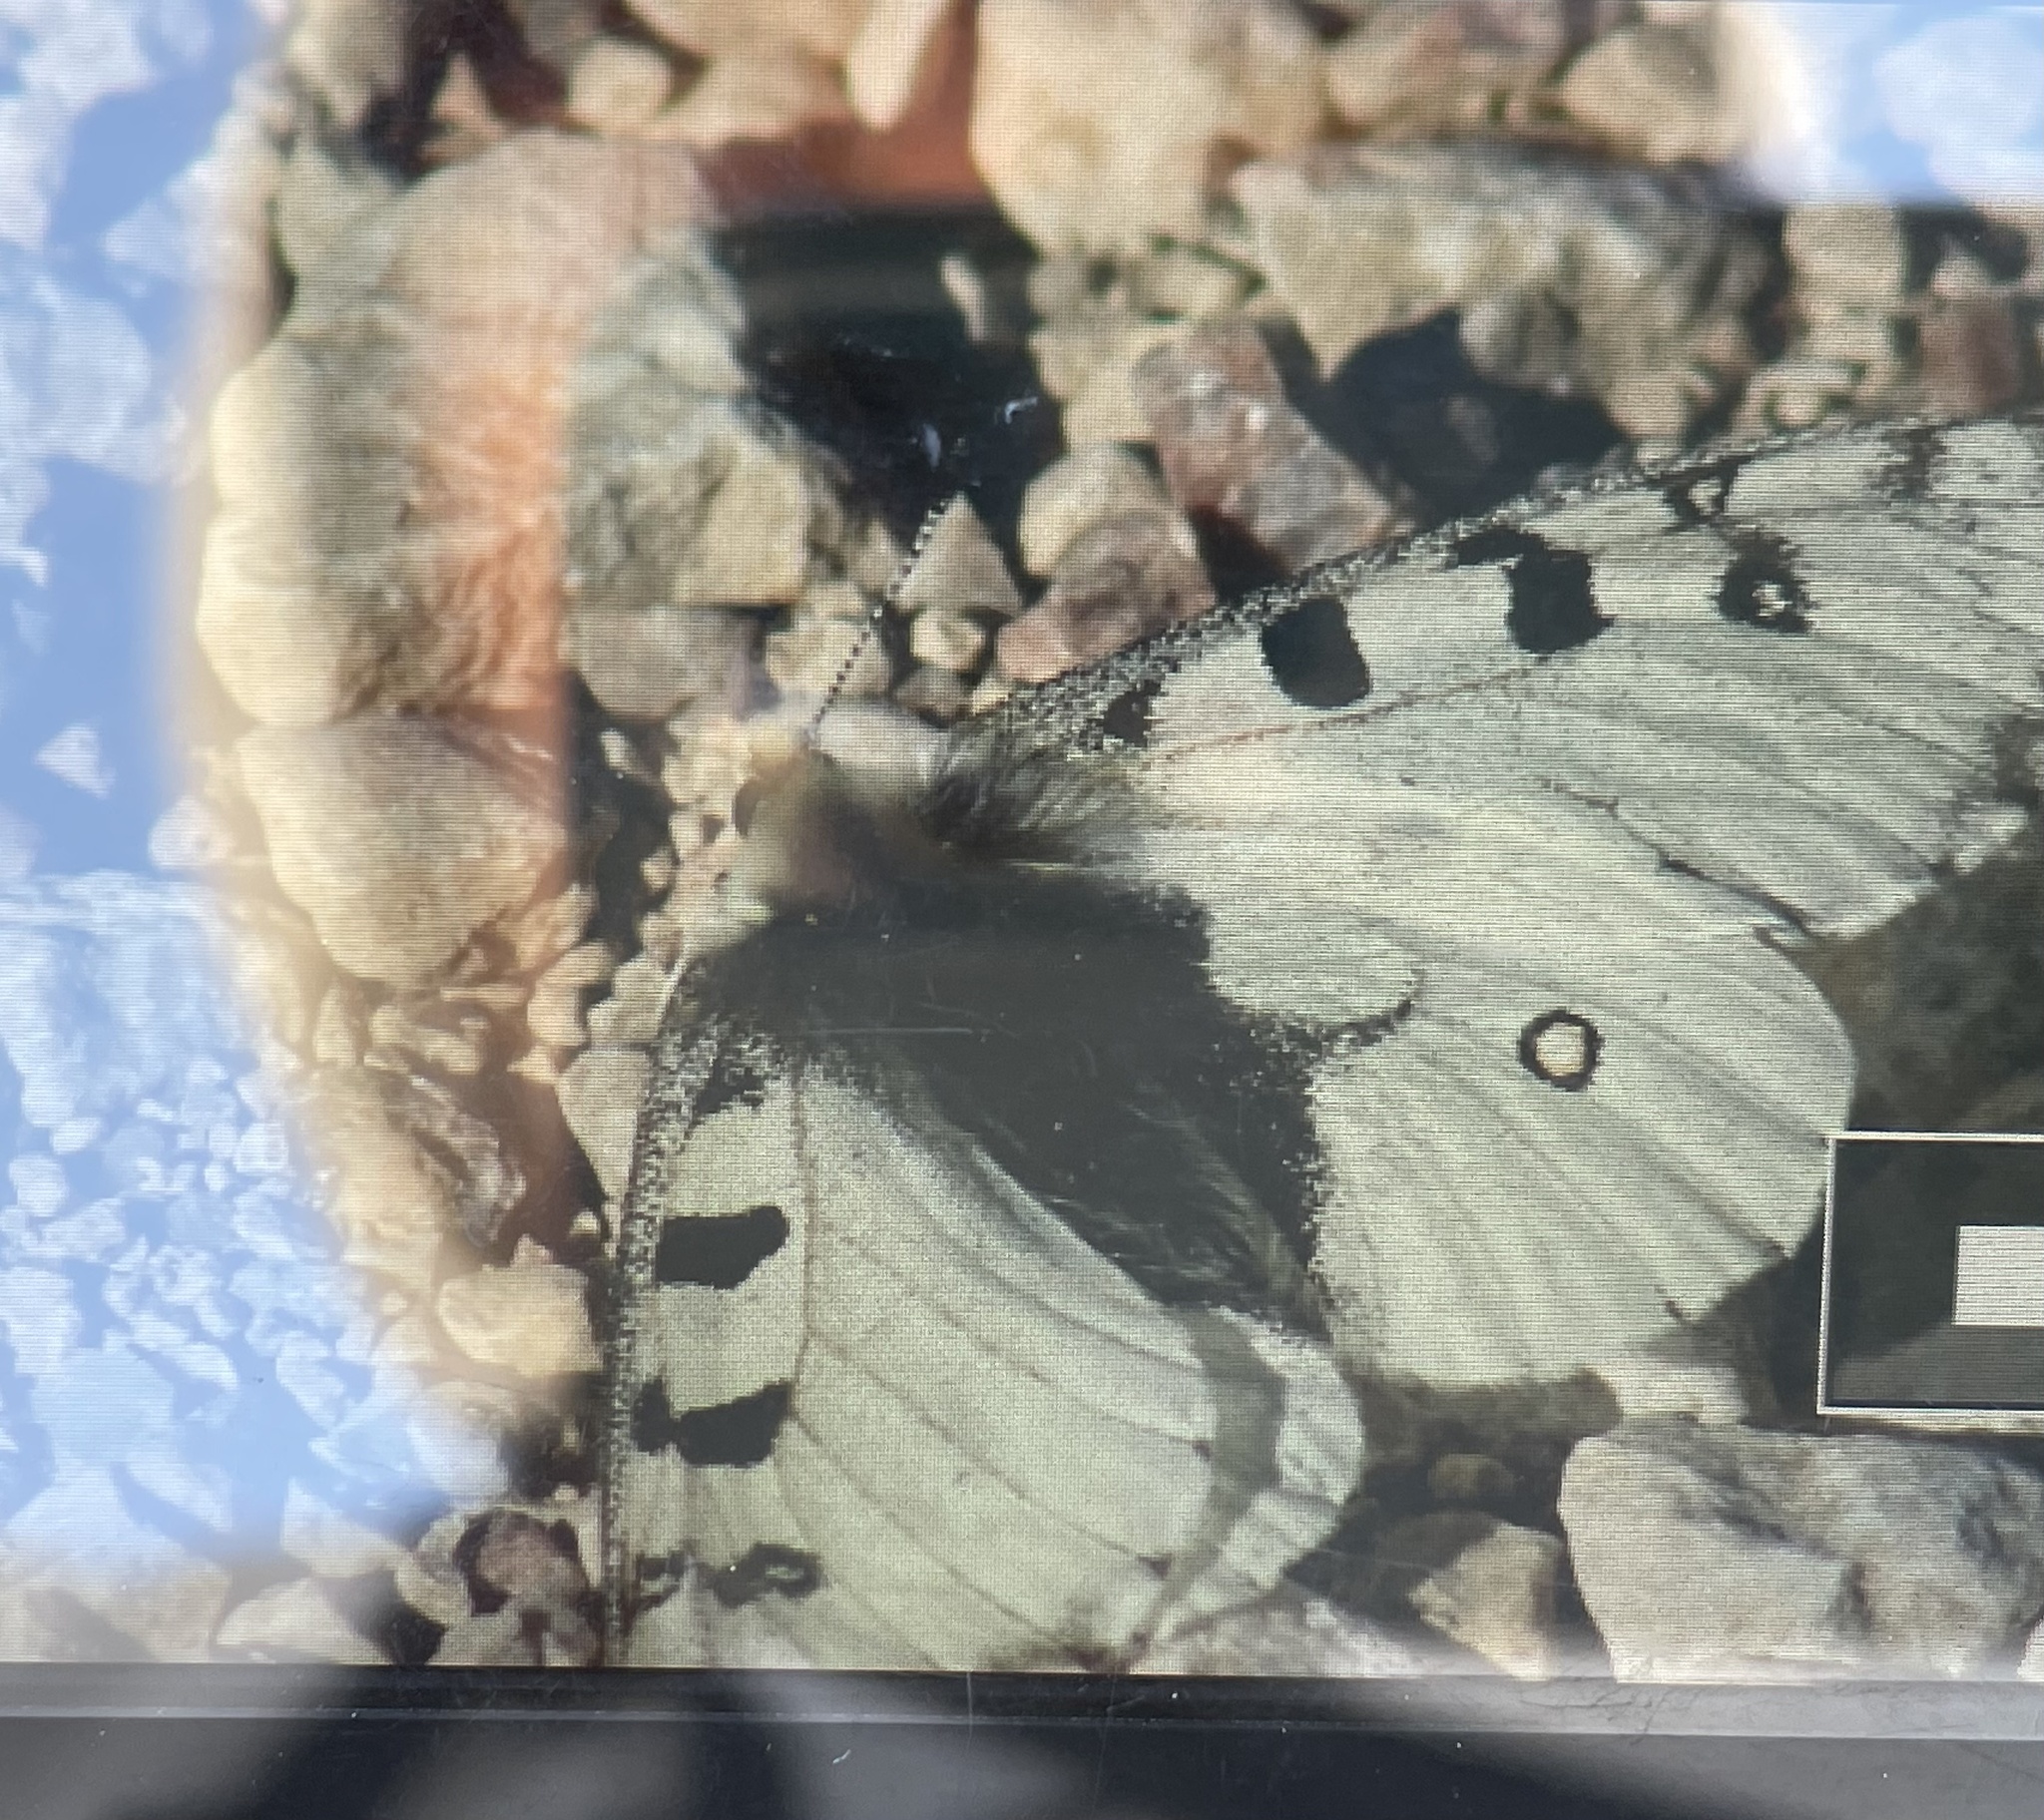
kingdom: Animalia
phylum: Arthropoda
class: Insecta
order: Lepidoptera
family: Papilionidae
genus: Parnassius
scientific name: Parnassius smintheus
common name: Mountain parnassian
